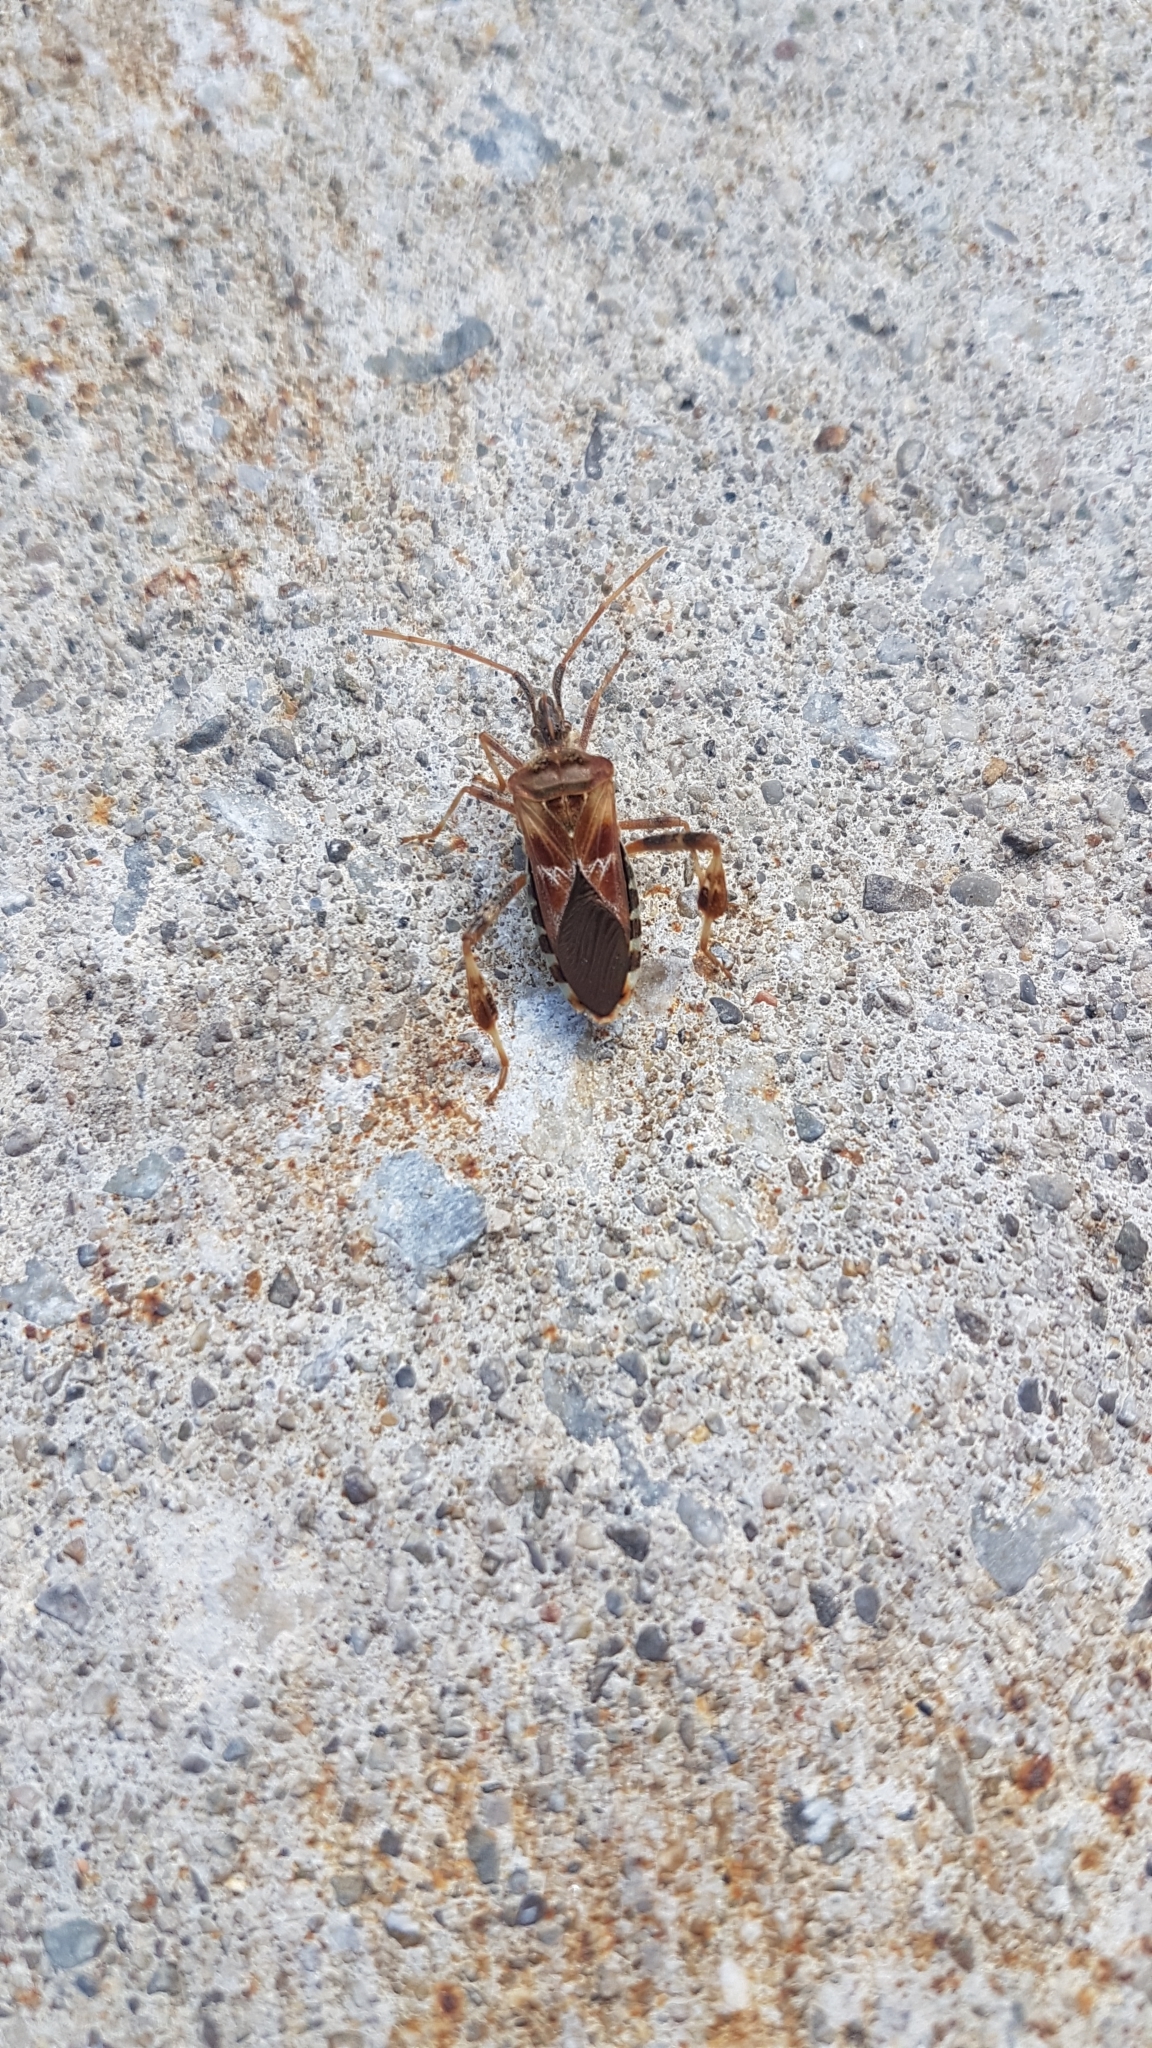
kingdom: Animalia
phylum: Arthropoda
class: Insecta
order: Hemiptera
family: Coreidae
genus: Leptoglossus
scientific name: Leptoglossus occidentalis
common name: Western conifer-seed bug
